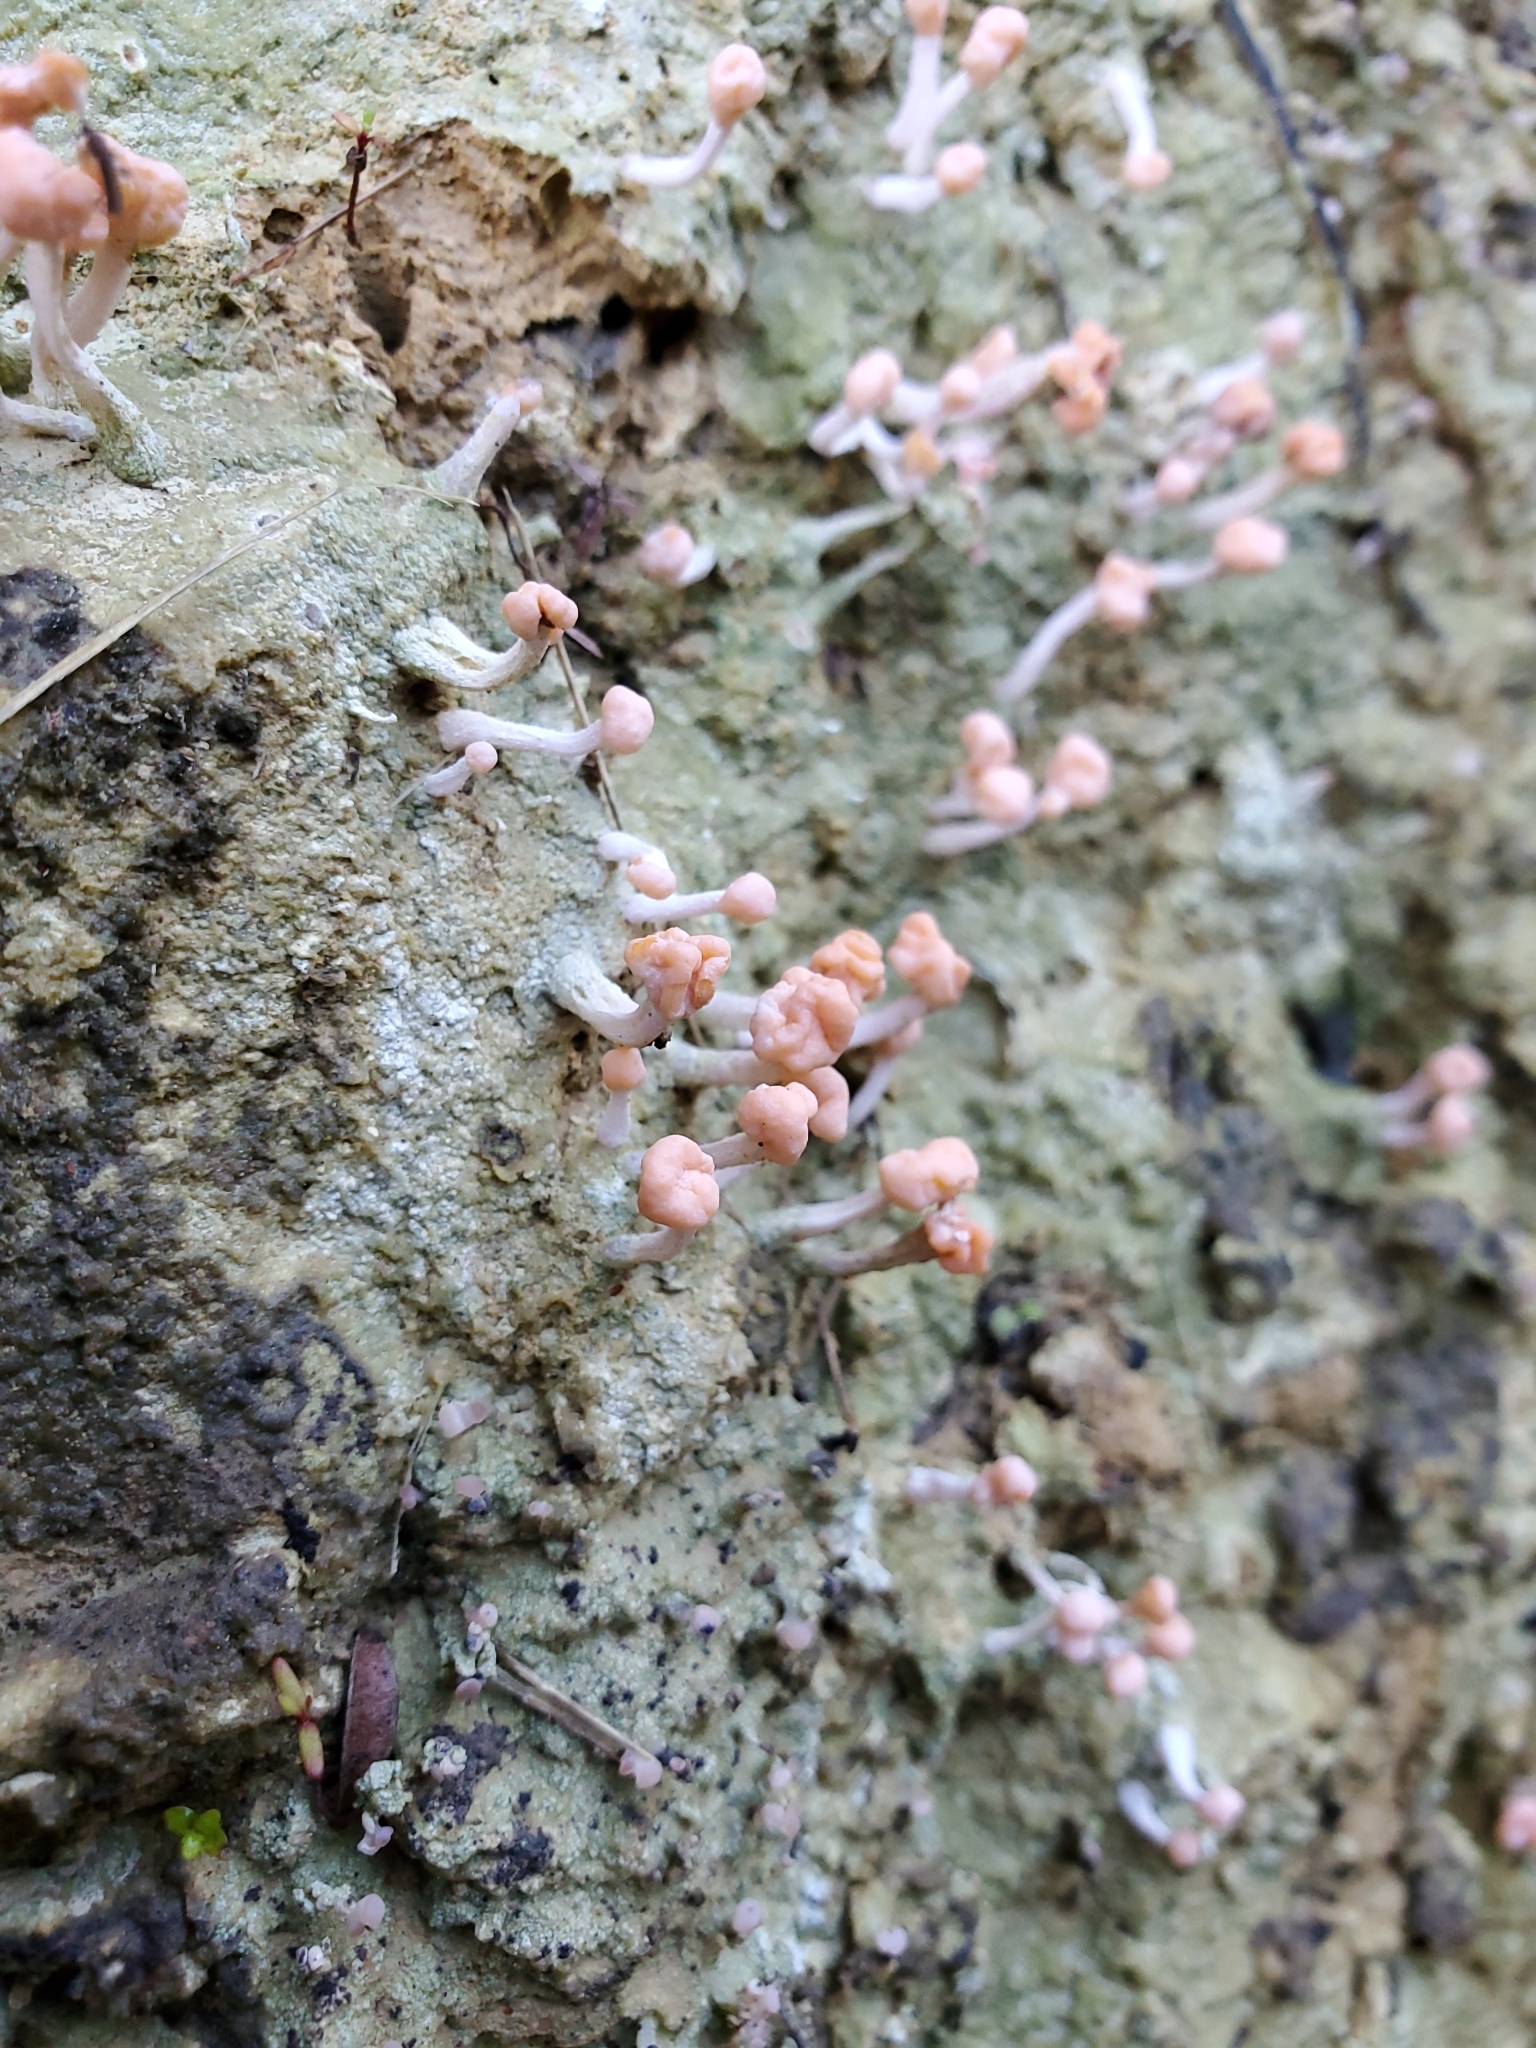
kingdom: Fungi
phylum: Ascomycota
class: Lecanoromycetes
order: Pertusariales
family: Icmadophilaceae
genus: Dibaeis
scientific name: Dibaeis arcuata
